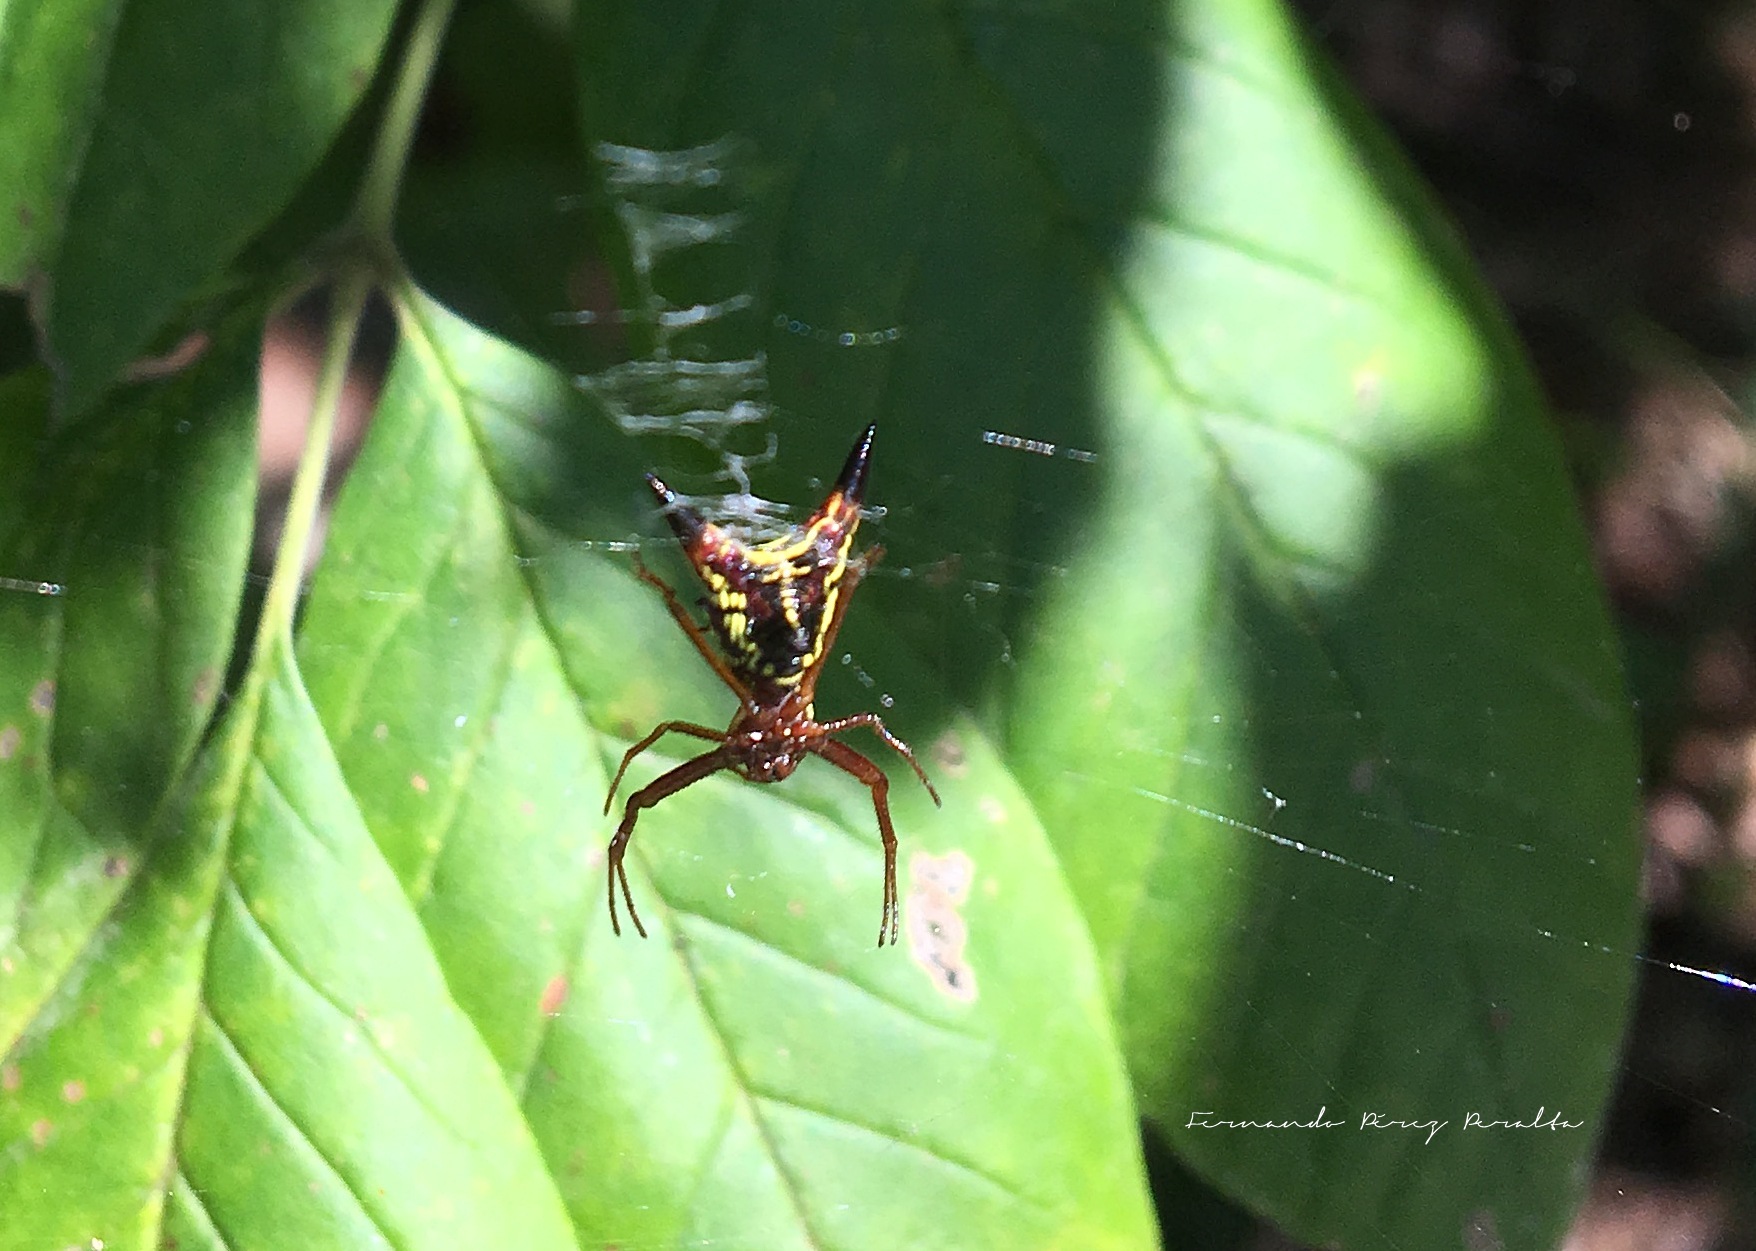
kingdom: Animalia
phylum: Arthropoda
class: Arachnida
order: Araneae
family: Araneidae
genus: Micrathena
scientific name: Micrathena sagittata
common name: Orb weavers
